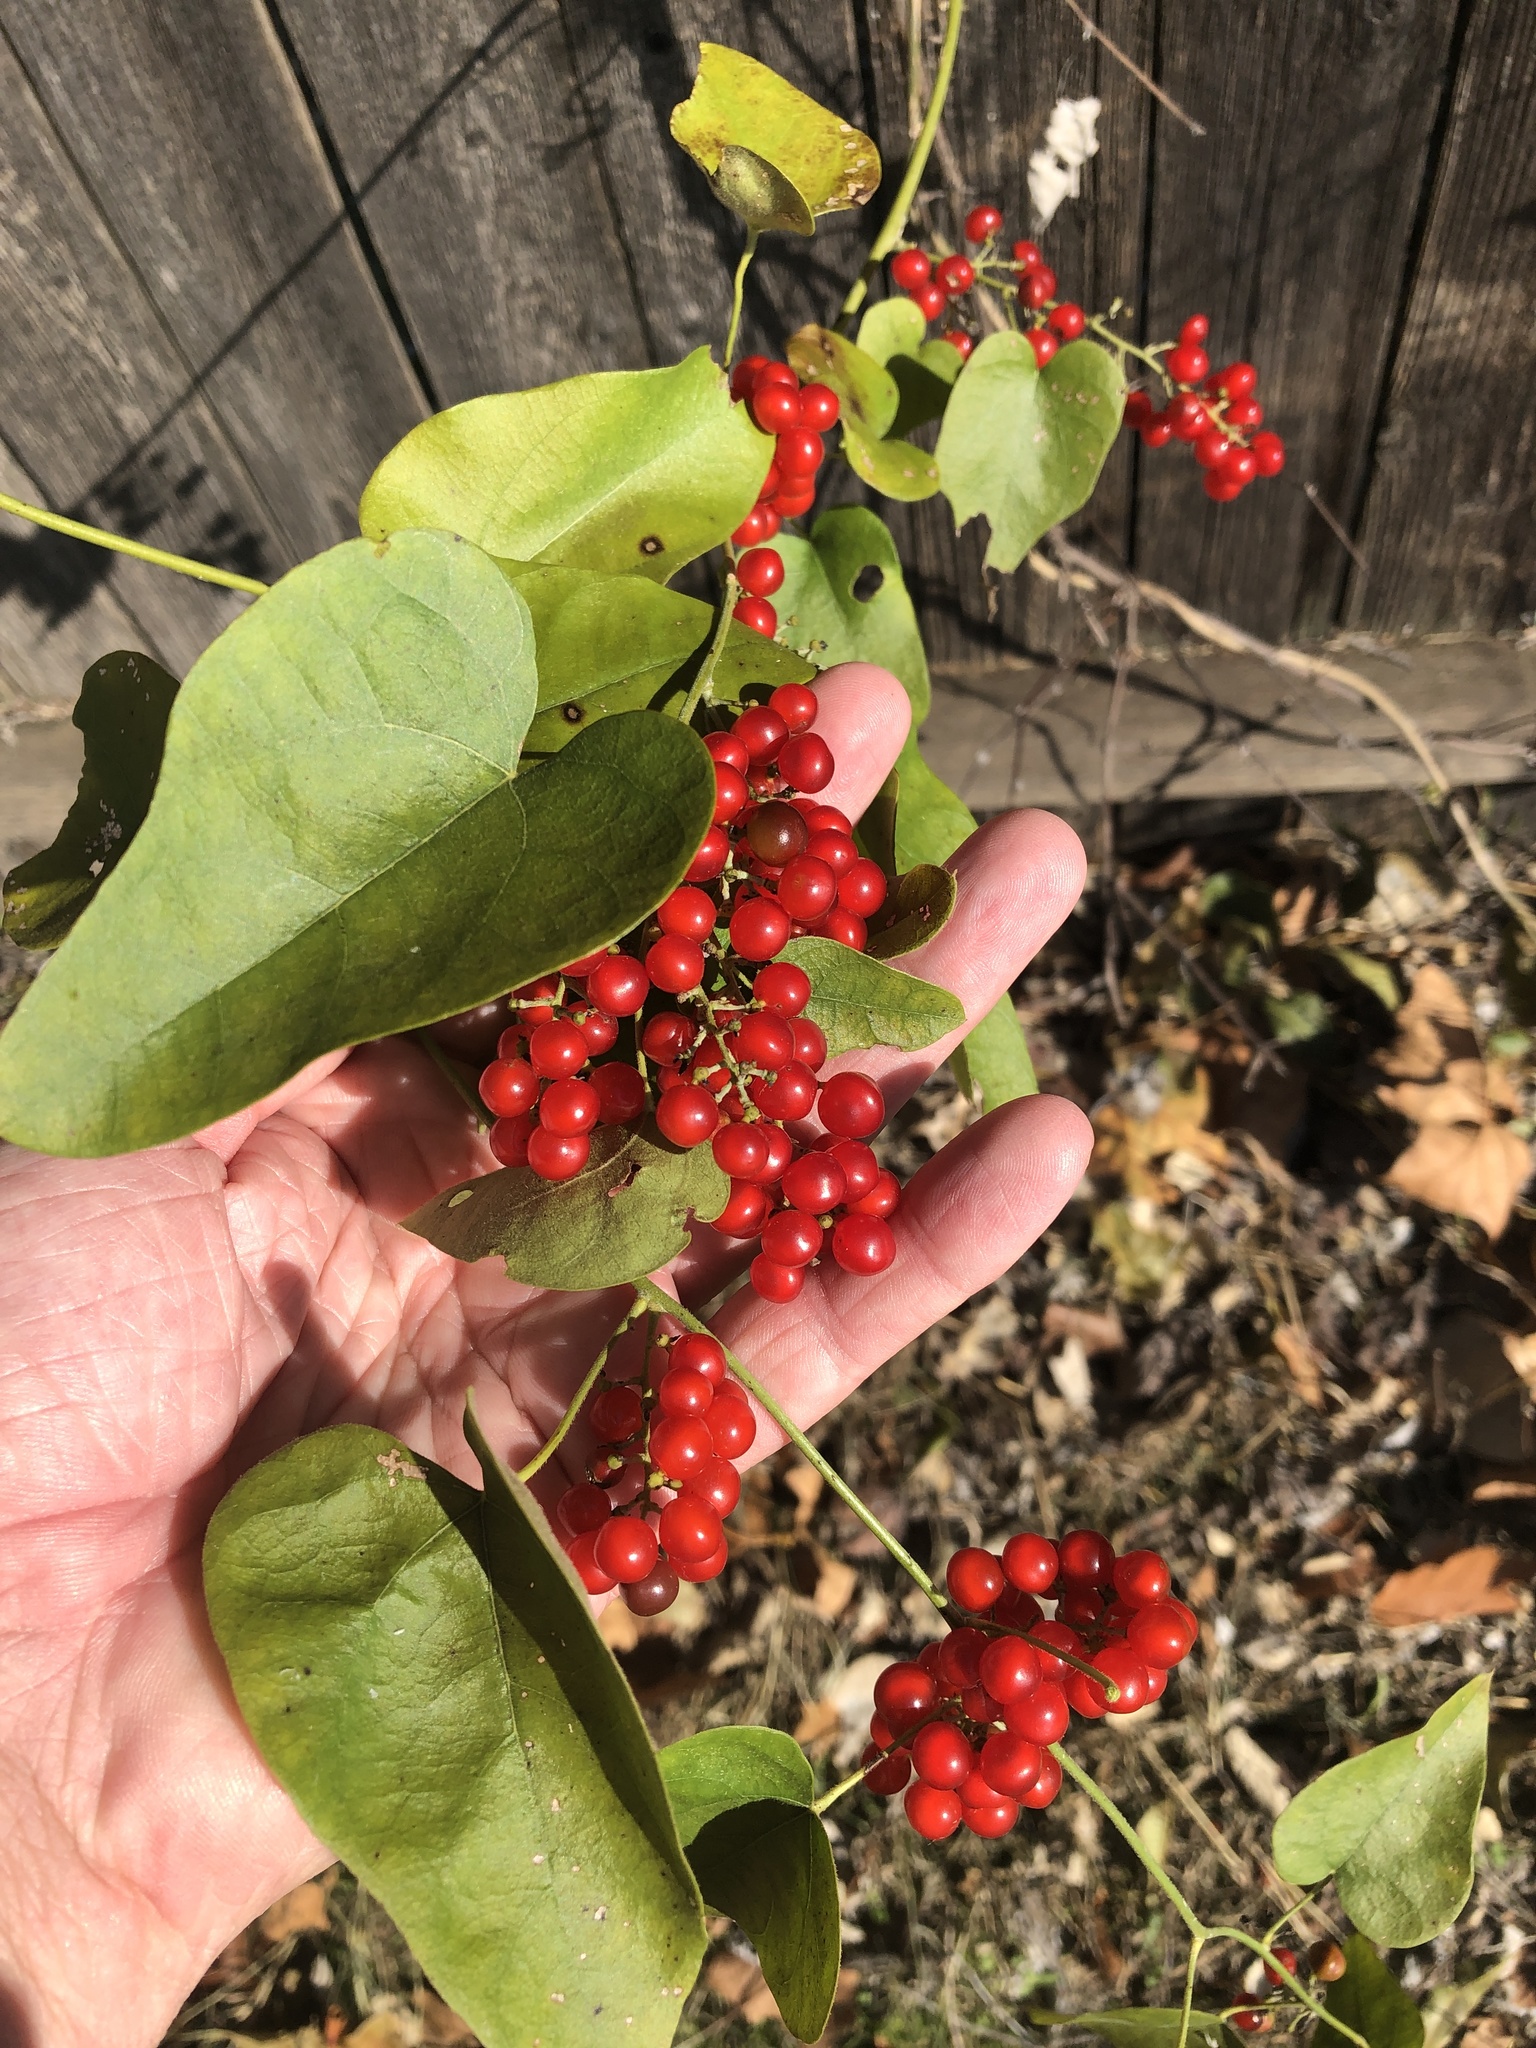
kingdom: Plantae
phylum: Tracheophyta
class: Magnoliopsida
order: Ranunculales
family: Menispermaceae
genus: Cocculus
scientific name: Cocculus carolinus
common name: Carolina moonseed
